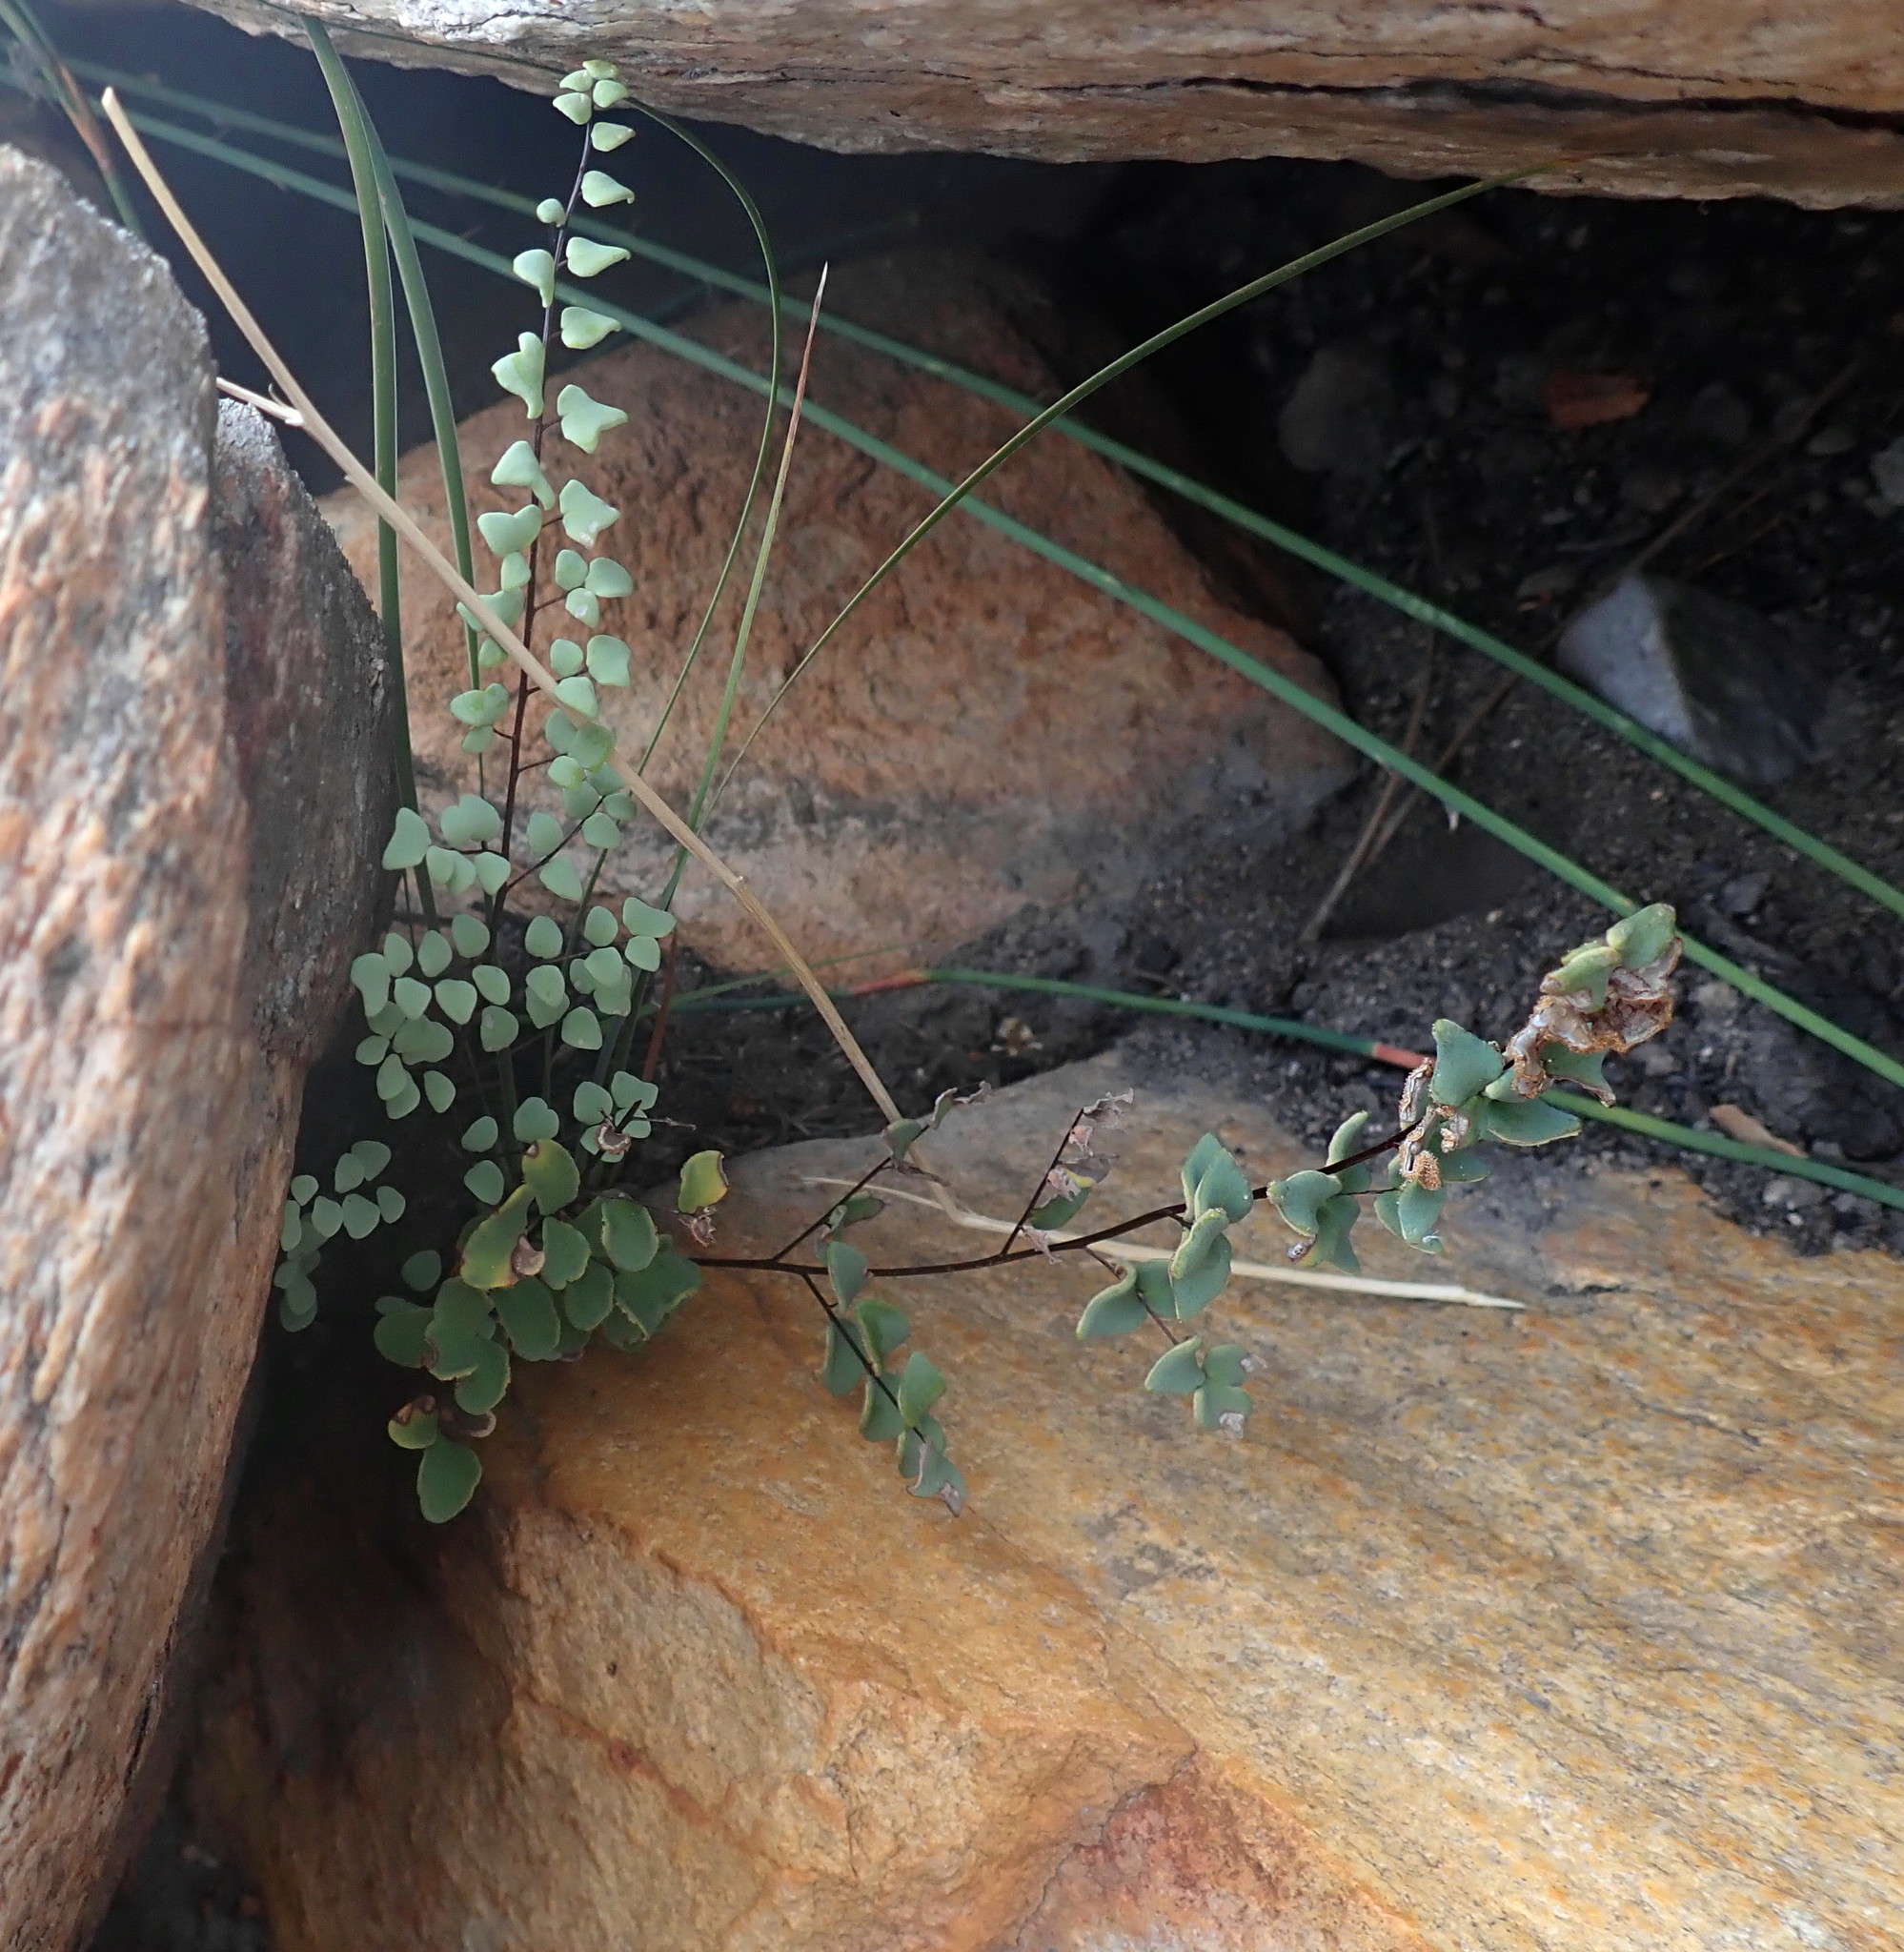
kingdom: Plantae
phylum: Tracheophyta
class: Polypodiopsida
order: Polypodiales
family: Pteridaceae
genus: Pellaea
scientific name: Pellaea calomelanos
